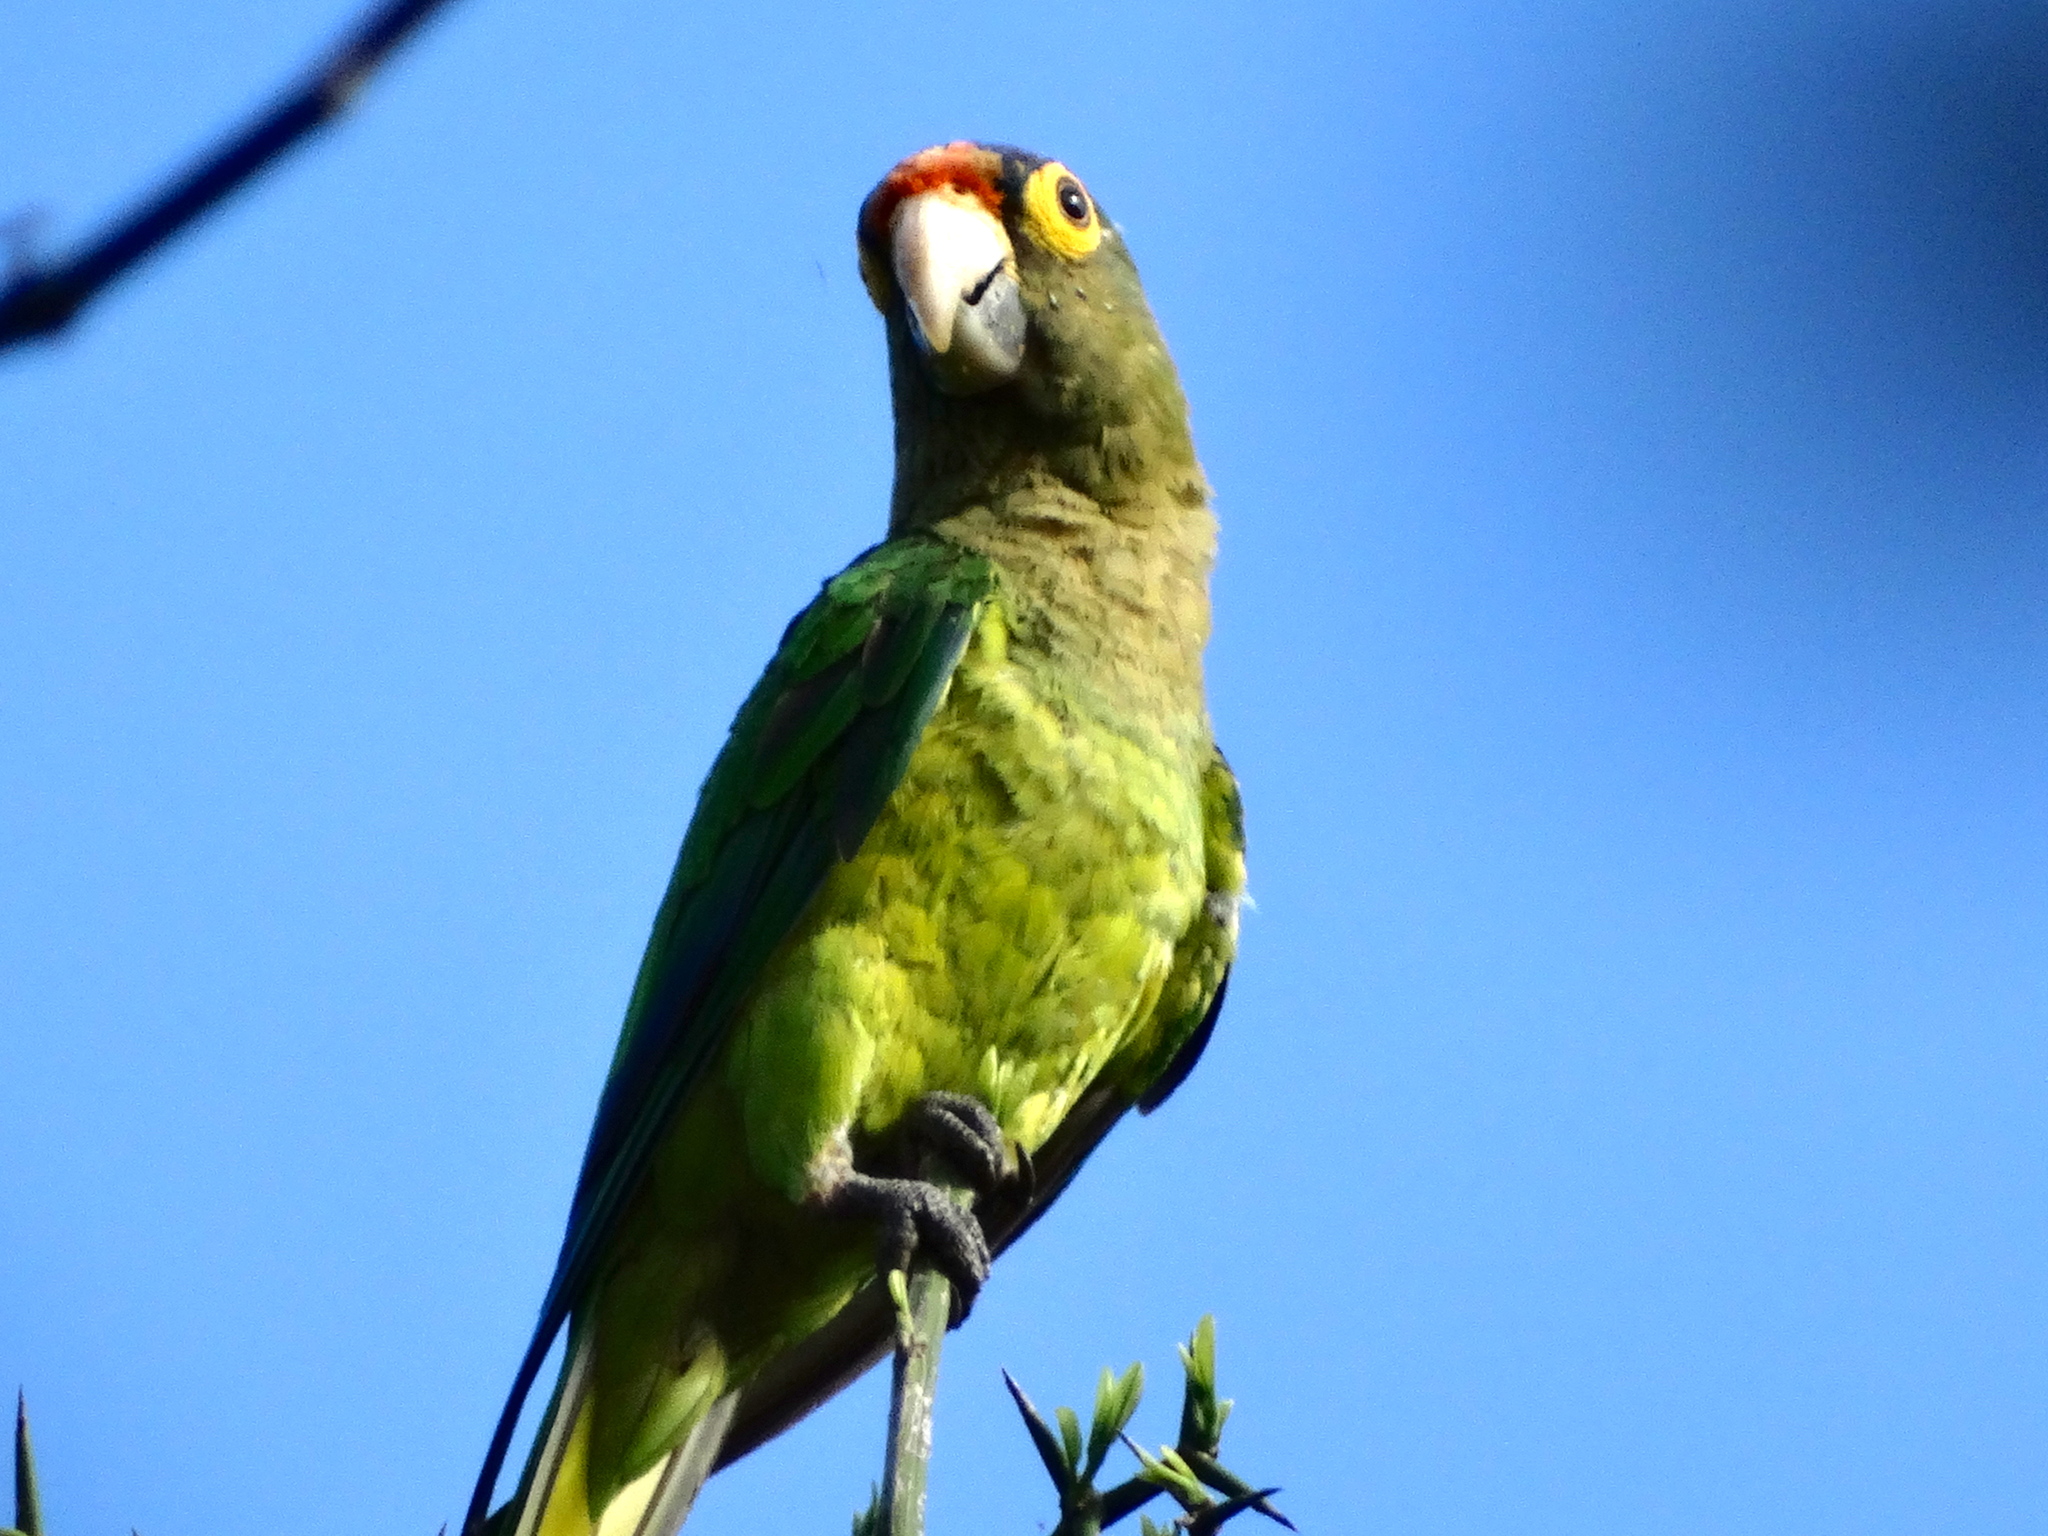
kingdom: Animalia
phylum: Chordata
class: Aves
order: Psittaciformes
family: Psittacidae
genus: Aratinga
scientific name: Aratinga canicularis
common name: Orange-fronted parakeet
